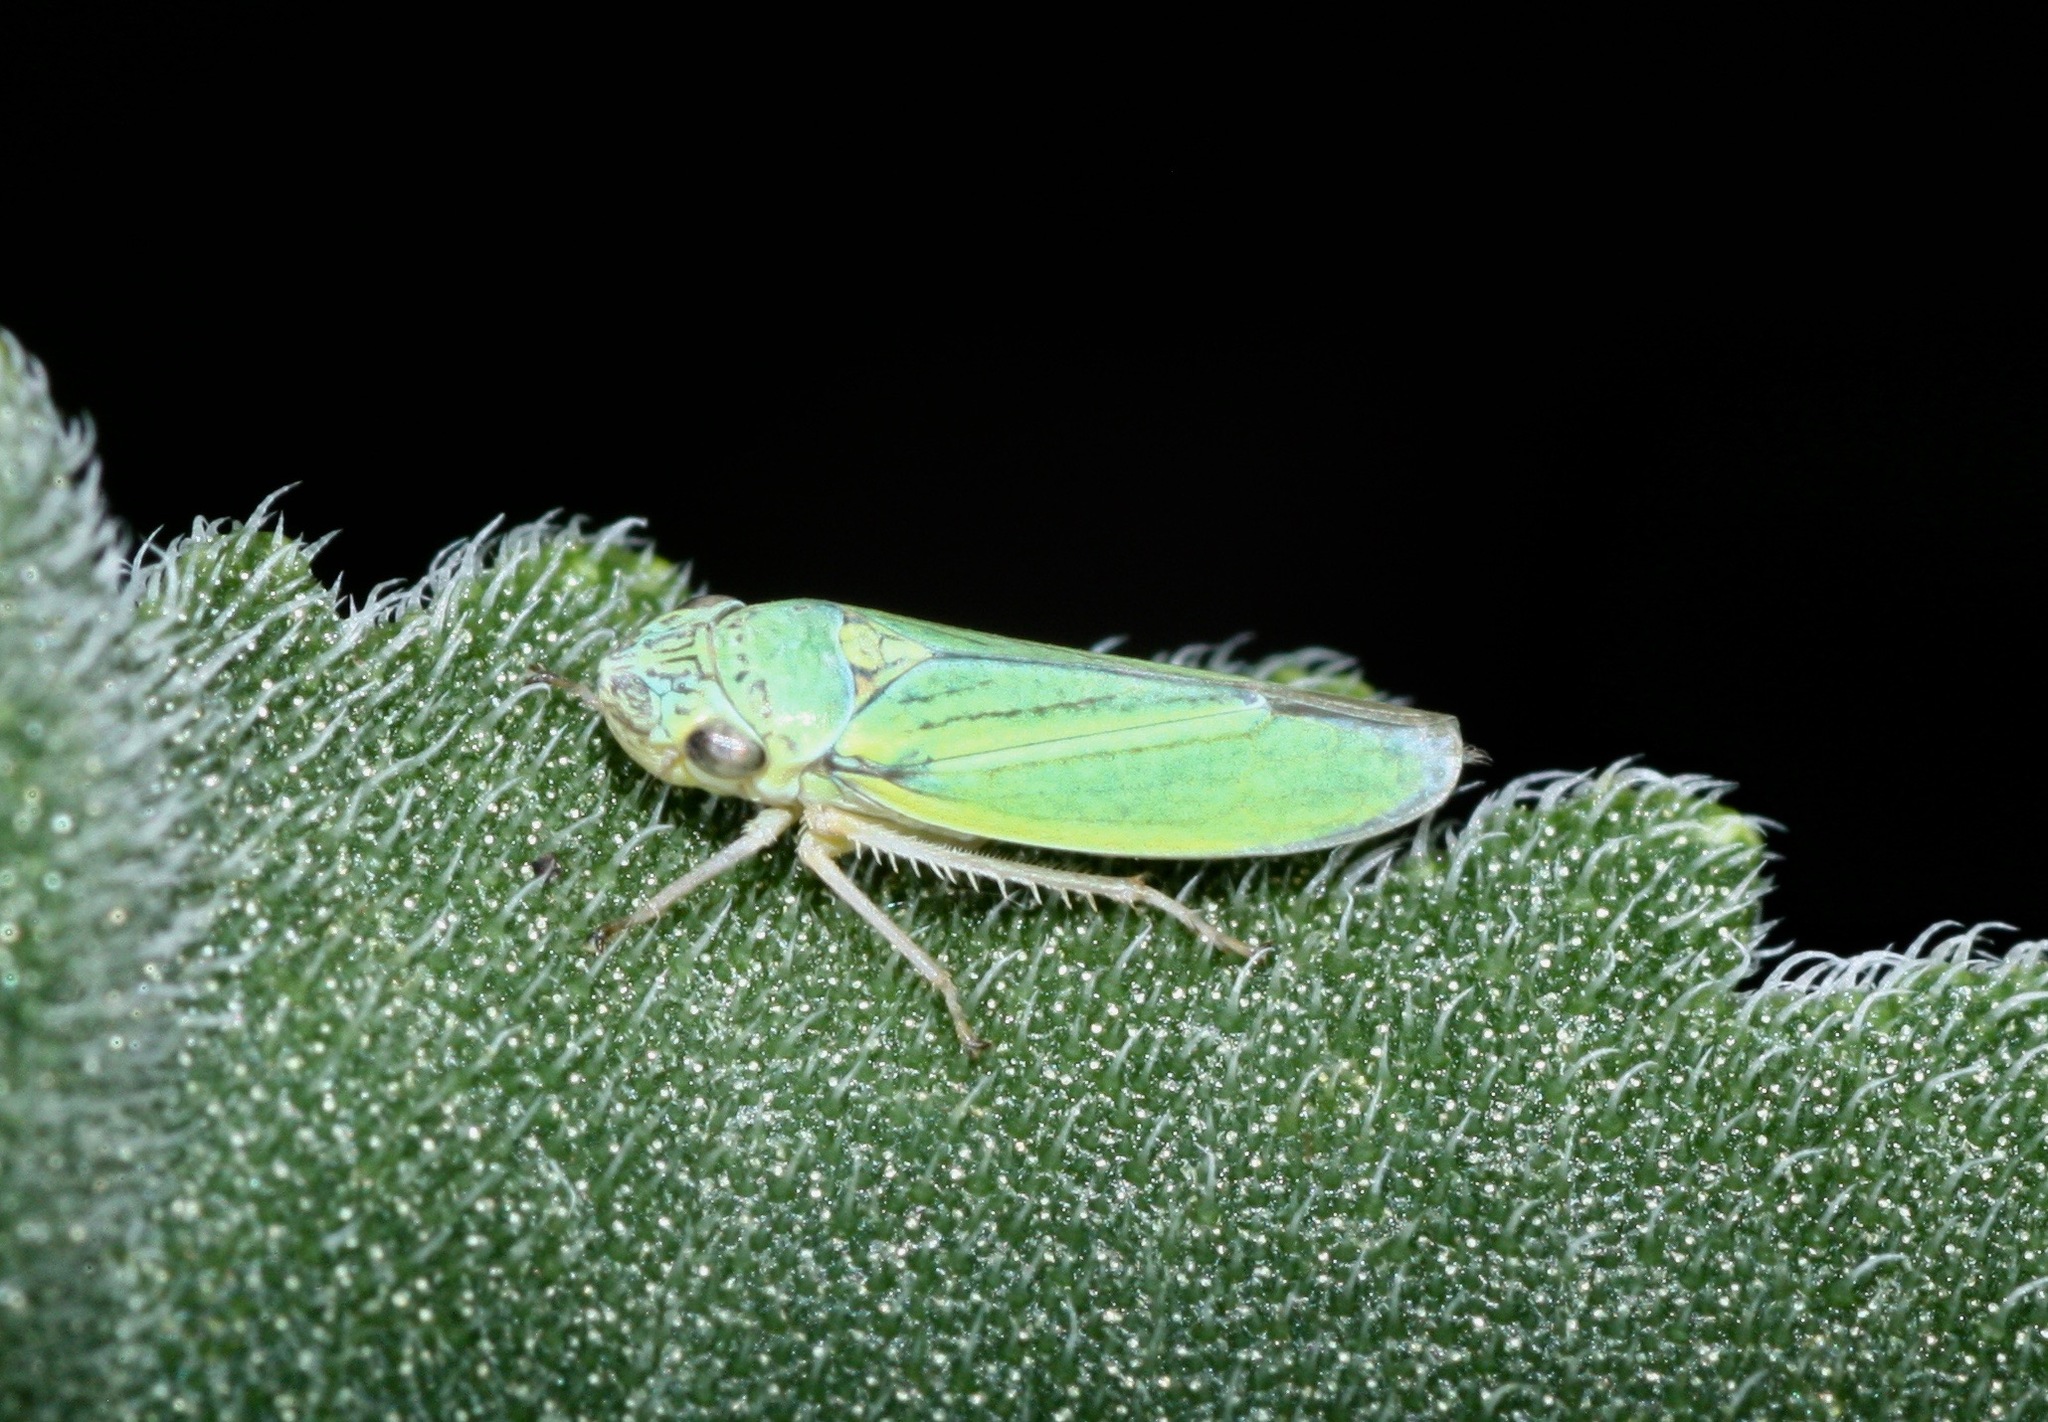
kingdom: Animalia
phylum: Arthropoda
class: Insecta
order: Hemiptera
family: Cicadellidae
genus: Graphocephala
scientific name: Graphocephala lugubris
